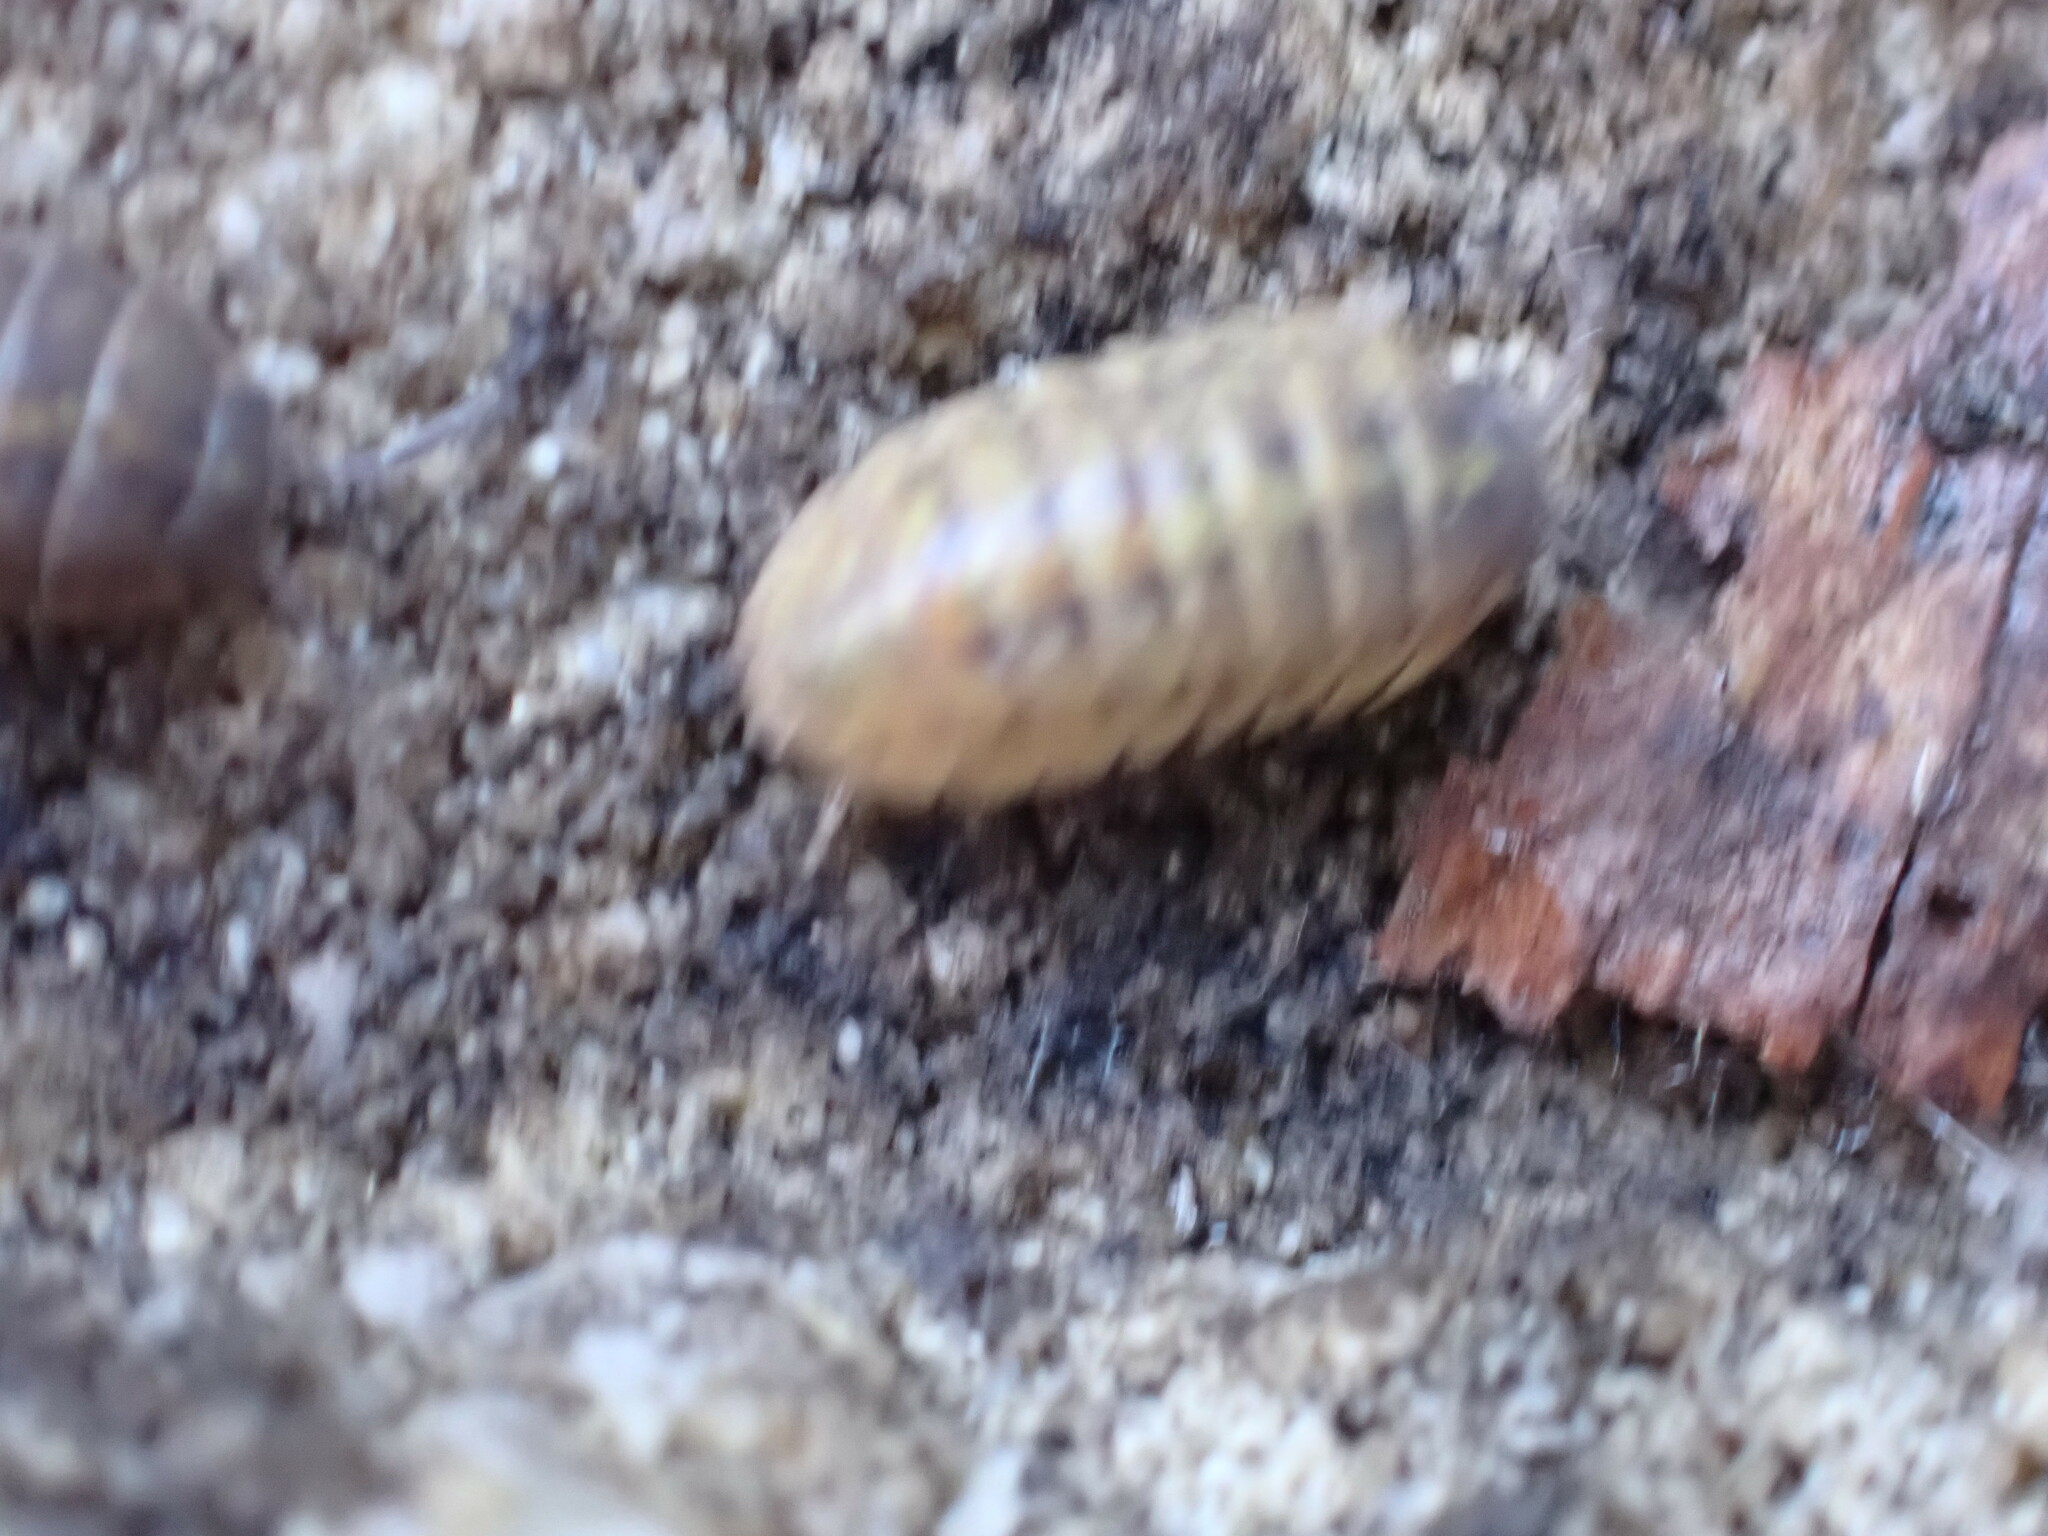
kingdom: Animalia
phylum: Arthropoda
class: Malacostraca
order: Isopoda
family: Armadillidiidae
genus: Armadillidium
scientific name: Armadillidium vulgare
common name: Common pill woodlouse
